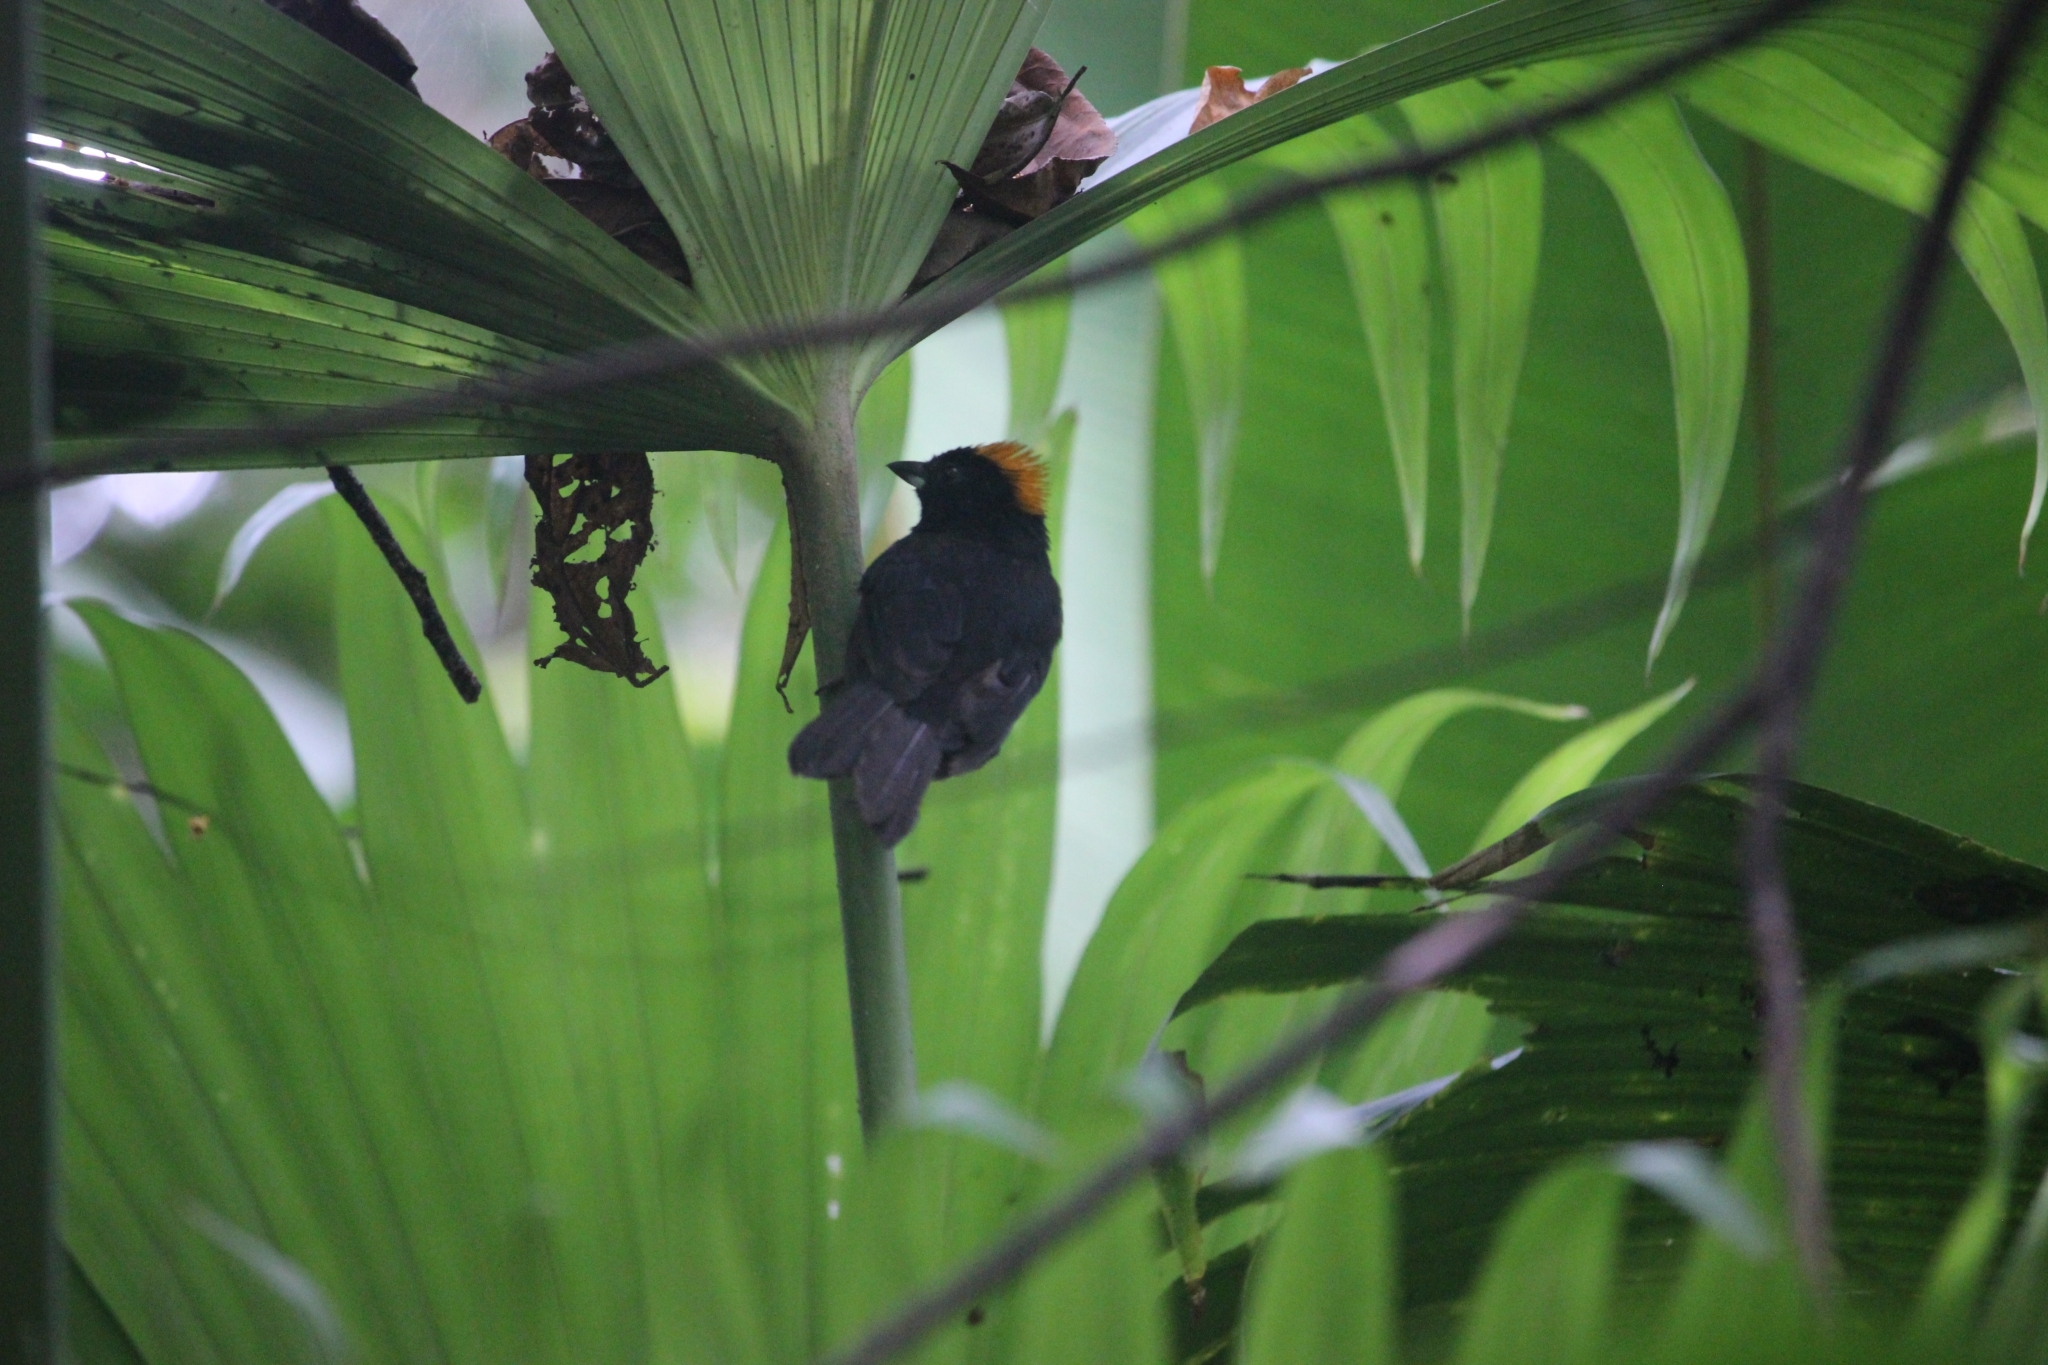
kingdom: Animalia
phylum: Chordata
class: Aves
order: Passeriformes
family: Thraupidae
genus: Tachyphonus
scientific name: Tachyphonus delatrii
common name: Tawny-crested tanager
